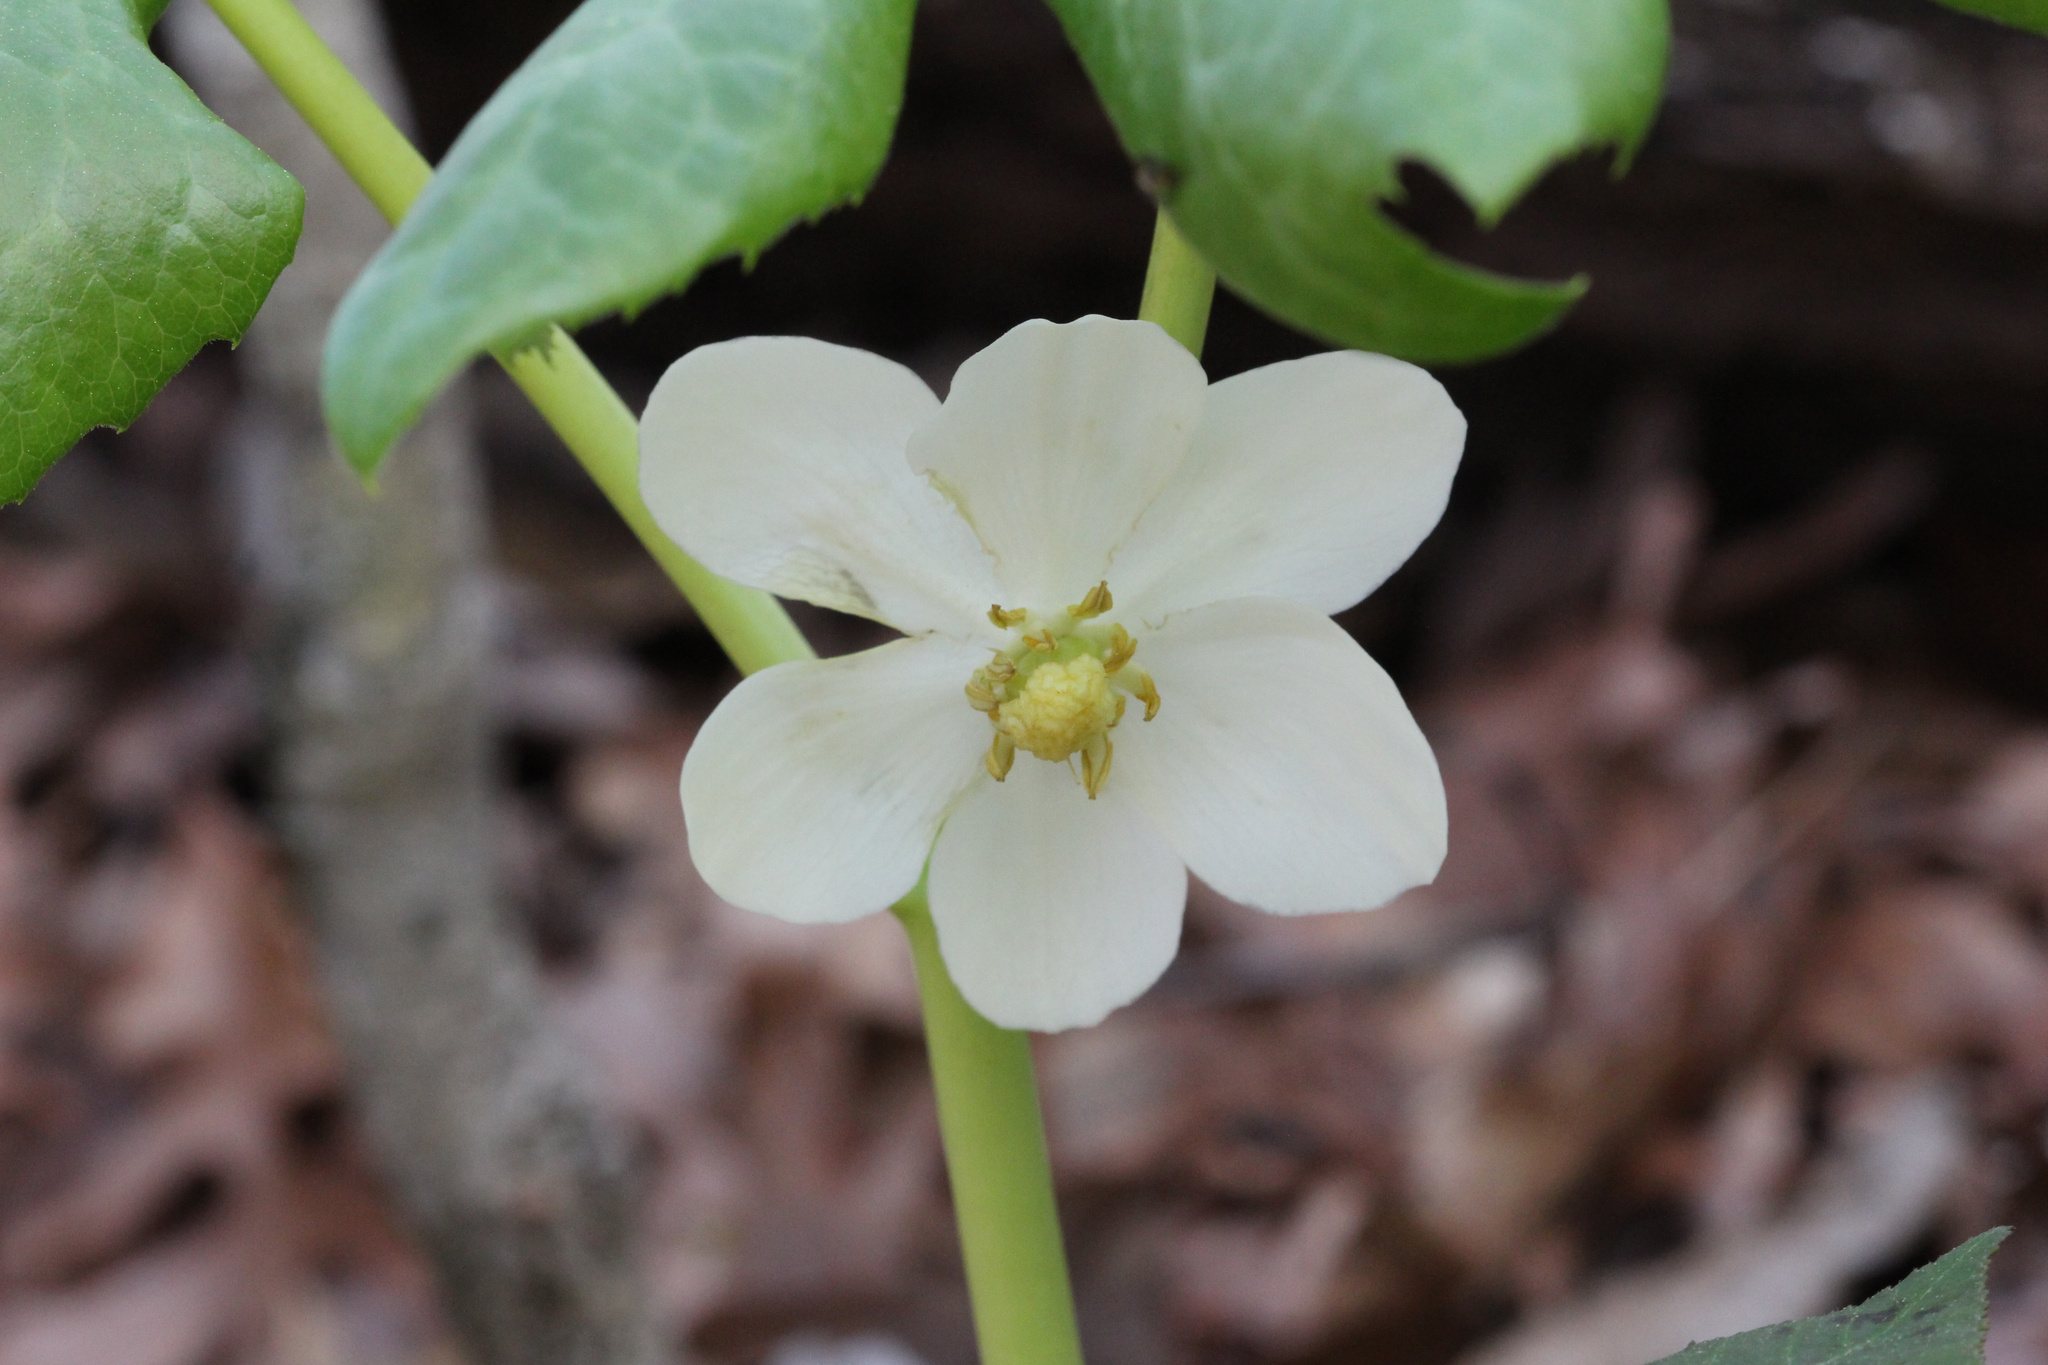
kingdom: Plantae
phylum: Tracheophyta
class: Magnoliopsida
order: Ranunculales
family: Berberidaceae
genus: Podophyllum
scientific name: Podophyllum peltatum
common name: Wild mandrake
